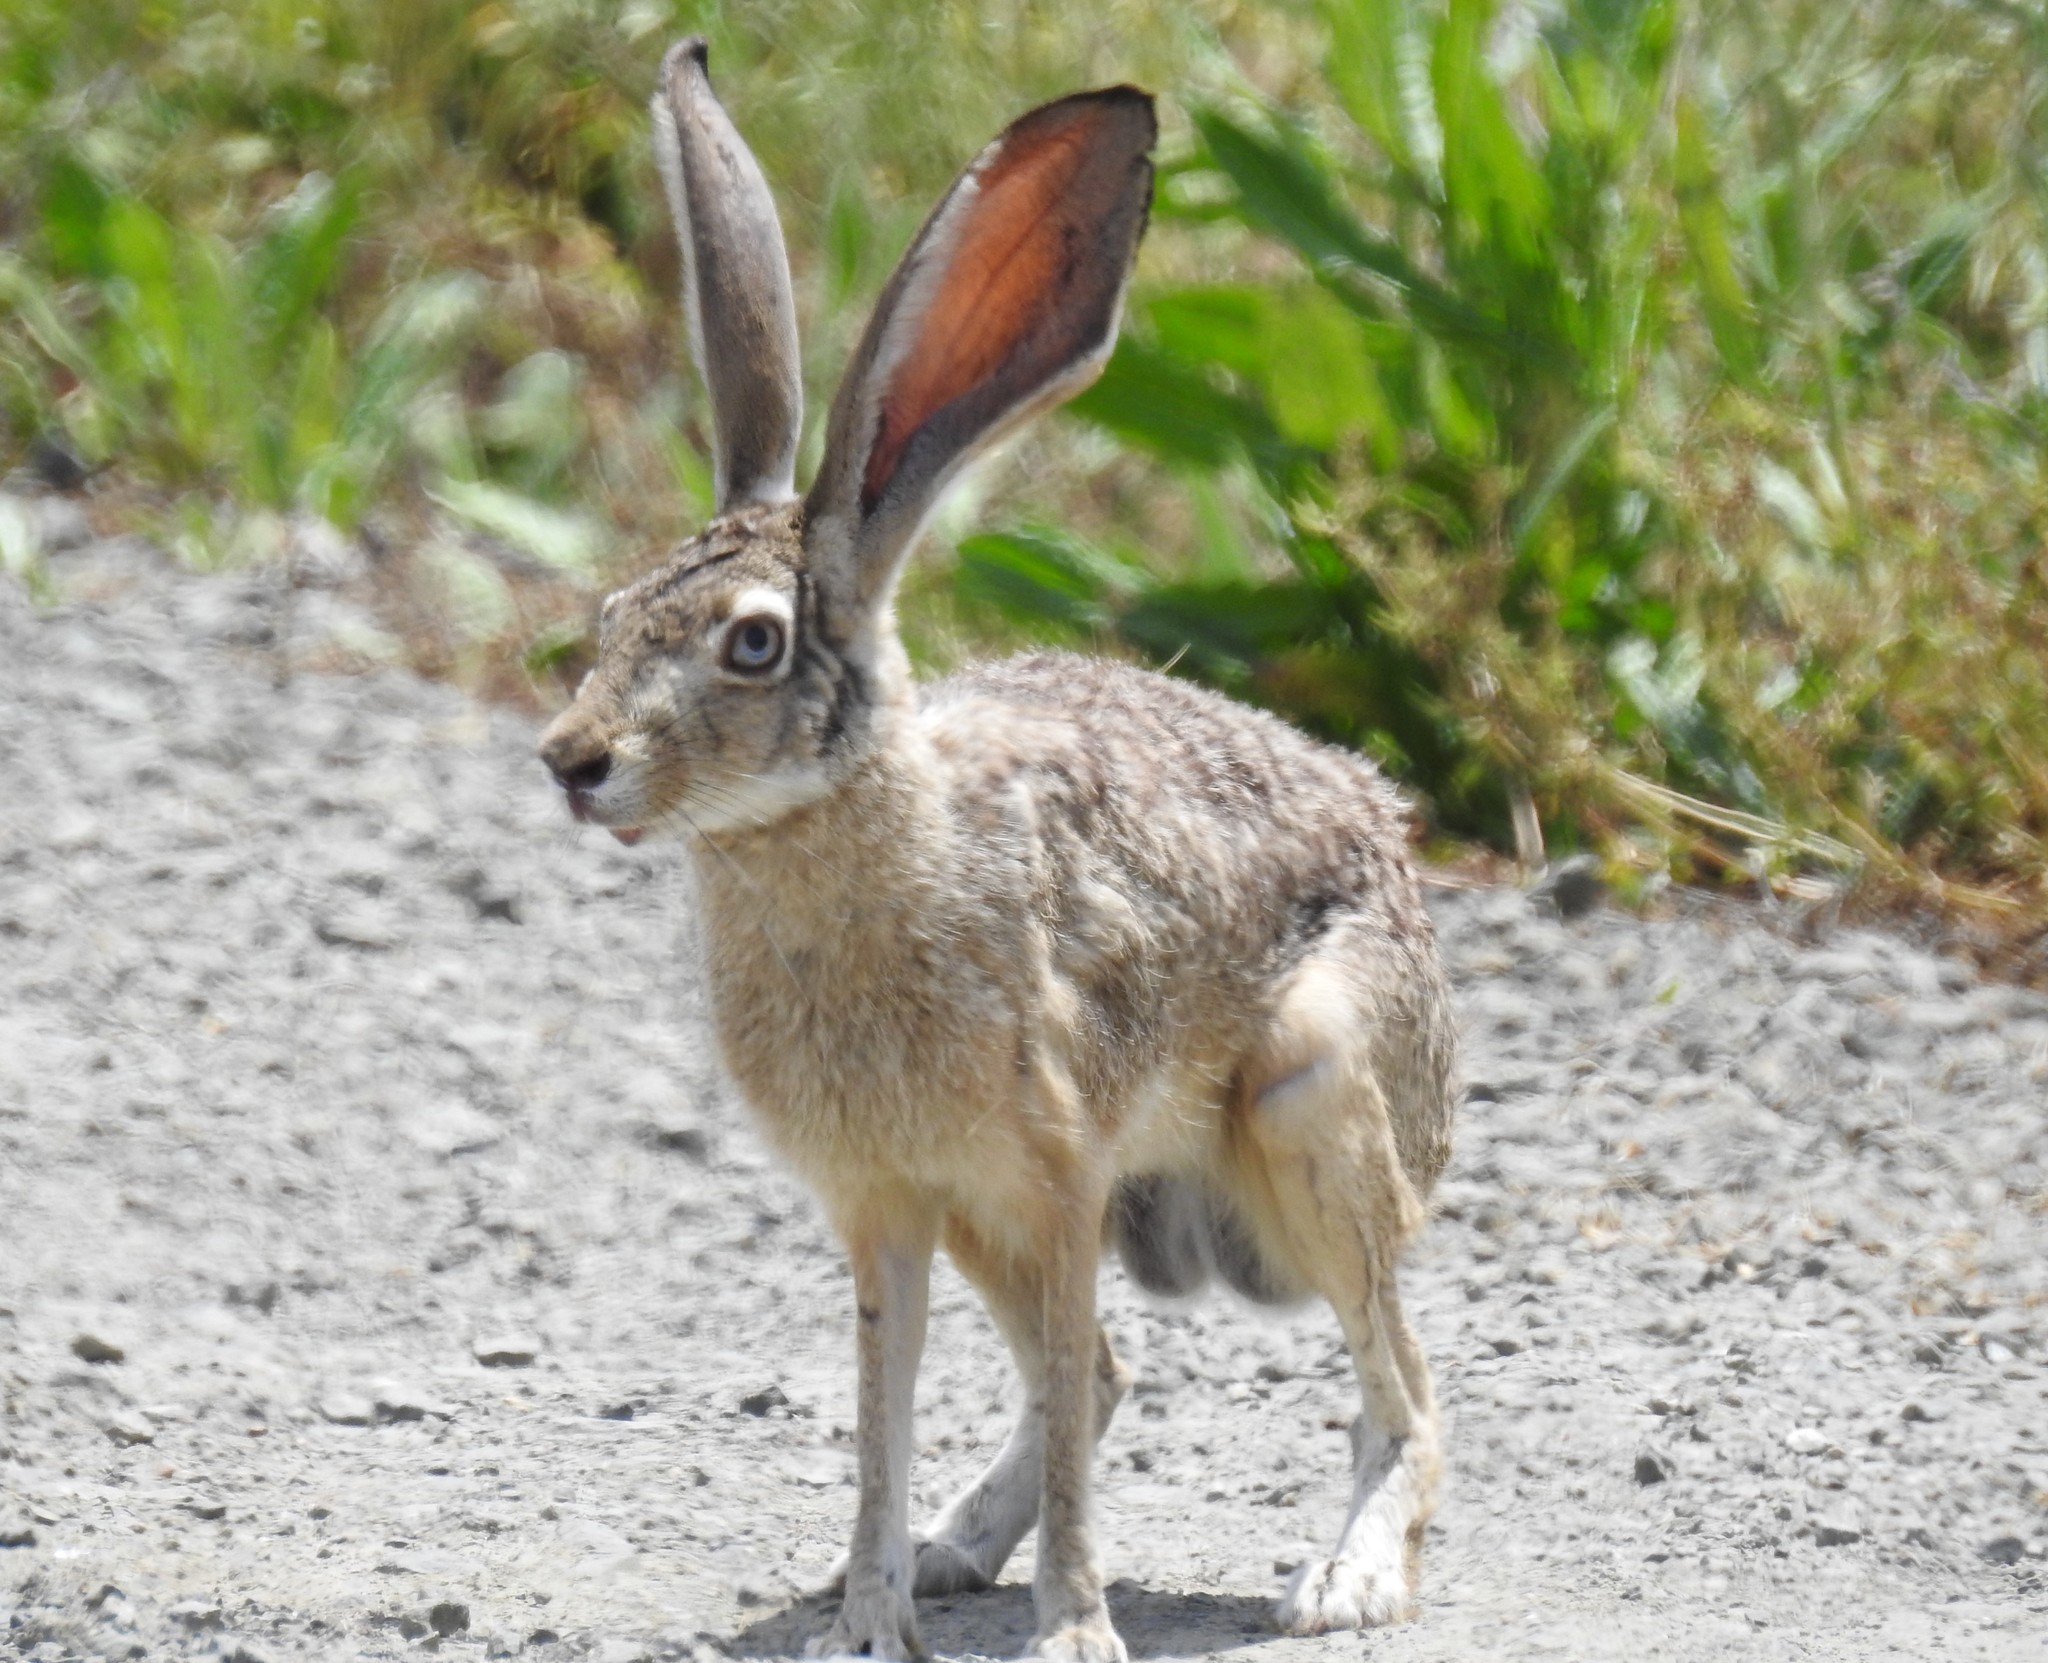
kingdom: Animalia
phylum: Chordata
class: Mammalia
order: Lagomorpha
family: Leporidae
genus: Lepus
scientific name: Lepus californicus
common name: Black-tailed jackrabbit
